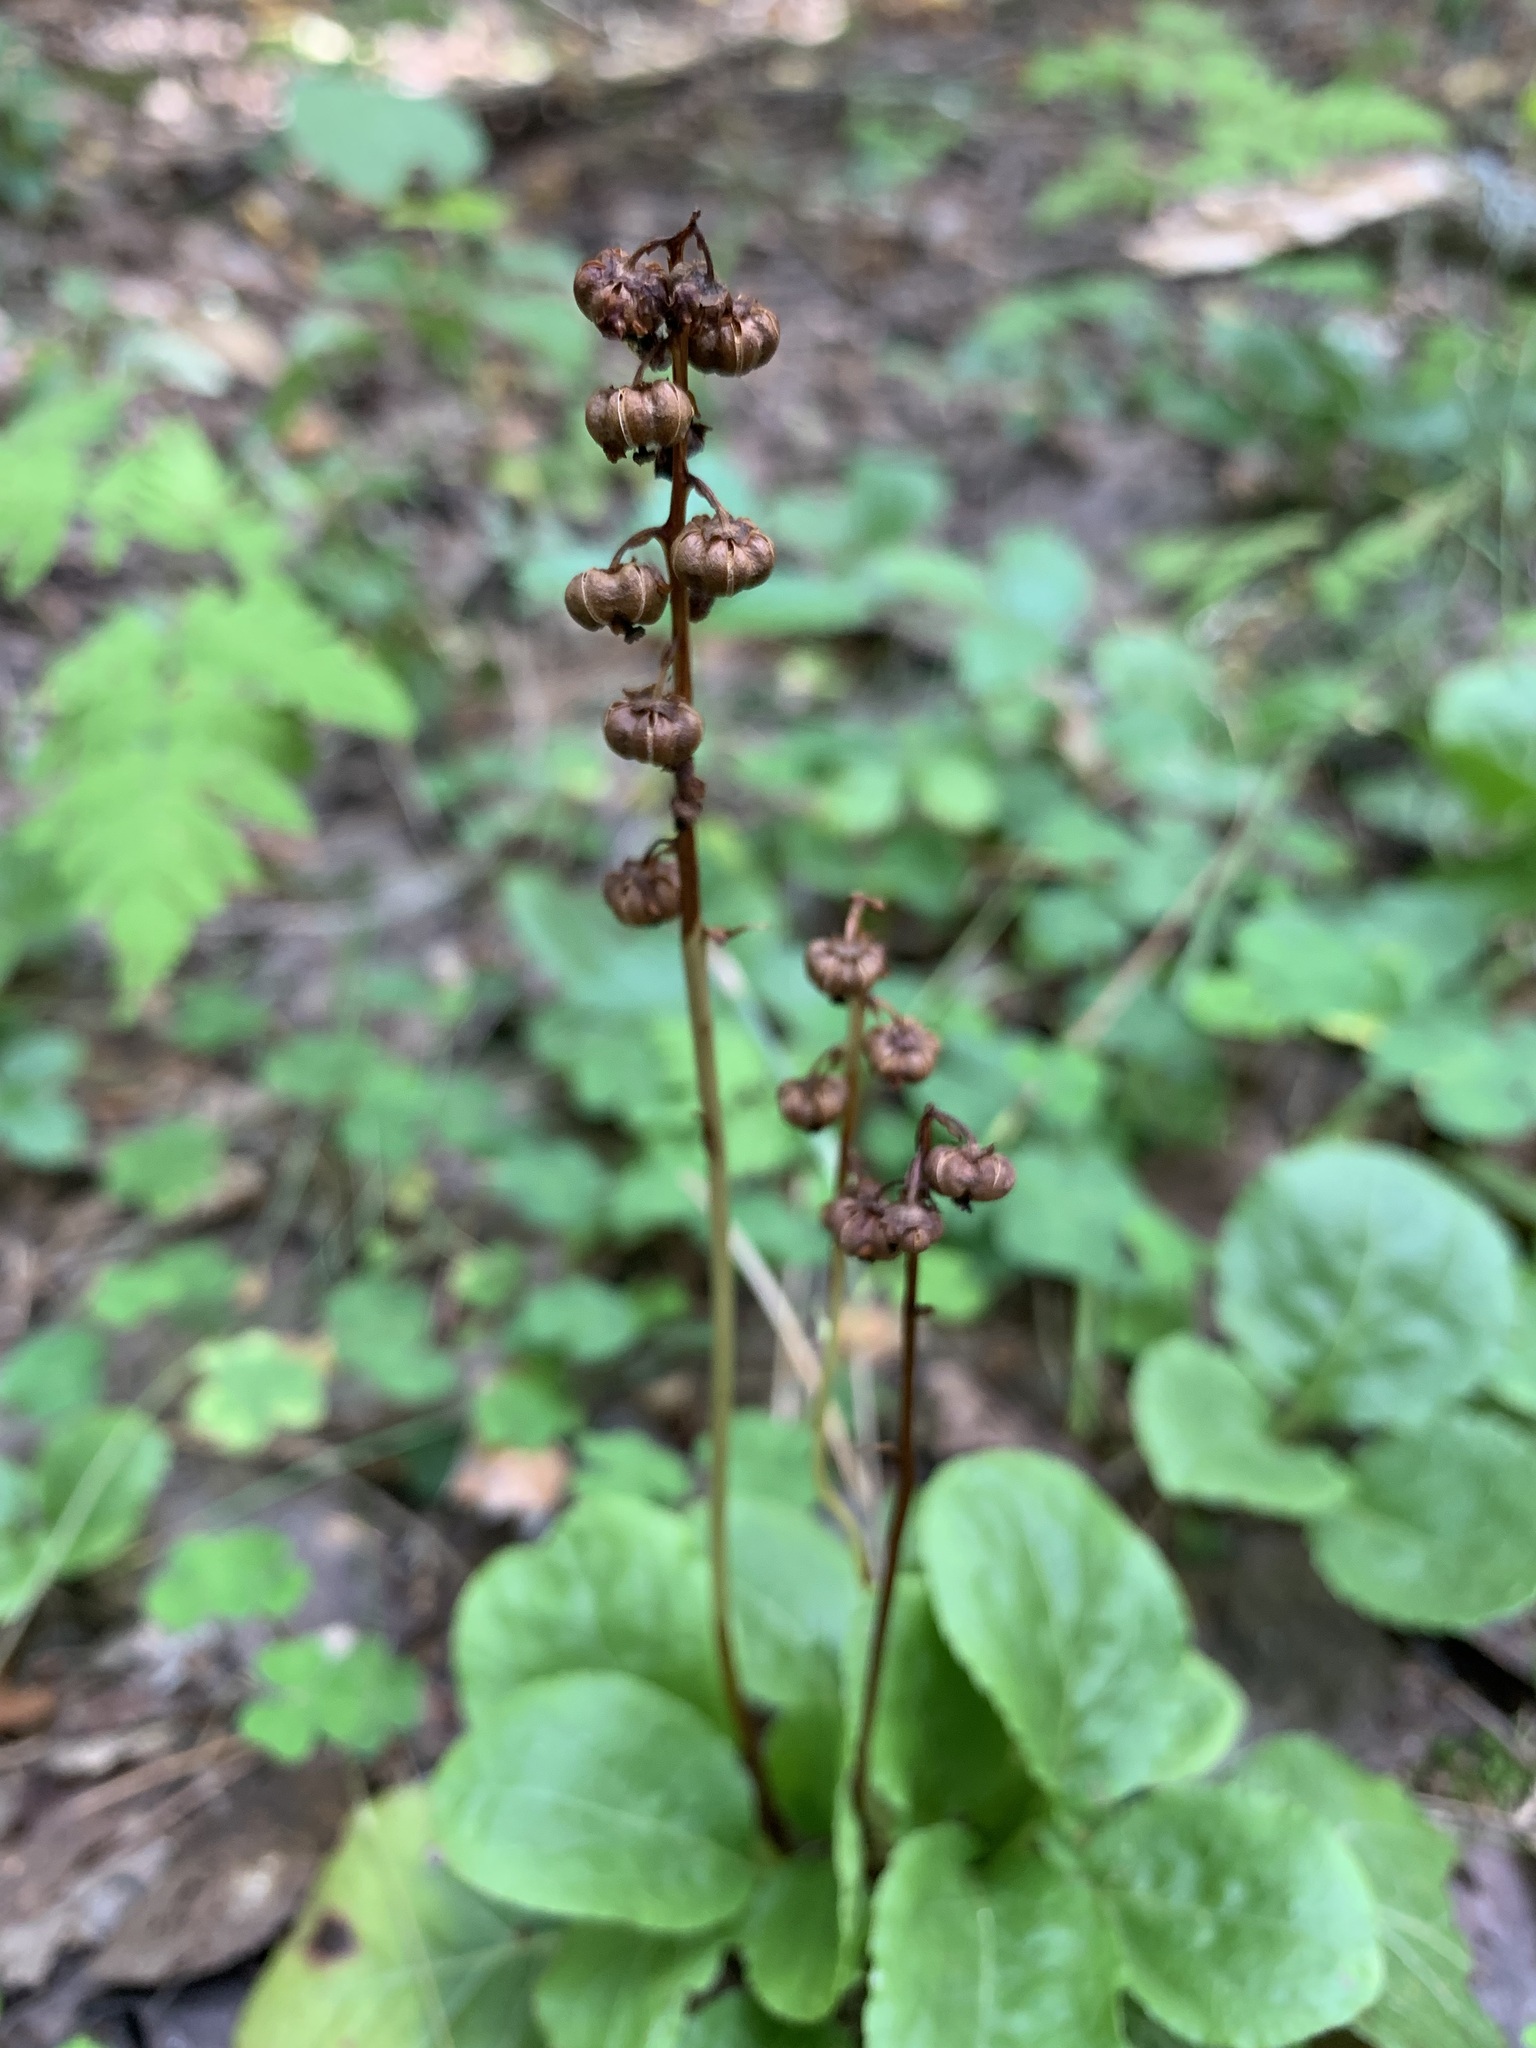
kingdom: Plantae
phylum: Tracheophyta
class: Magnoliopsida
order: Ericales
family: Ericaceae
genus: Pyrola
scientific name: Pyrola minor
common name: Common wintergreen
